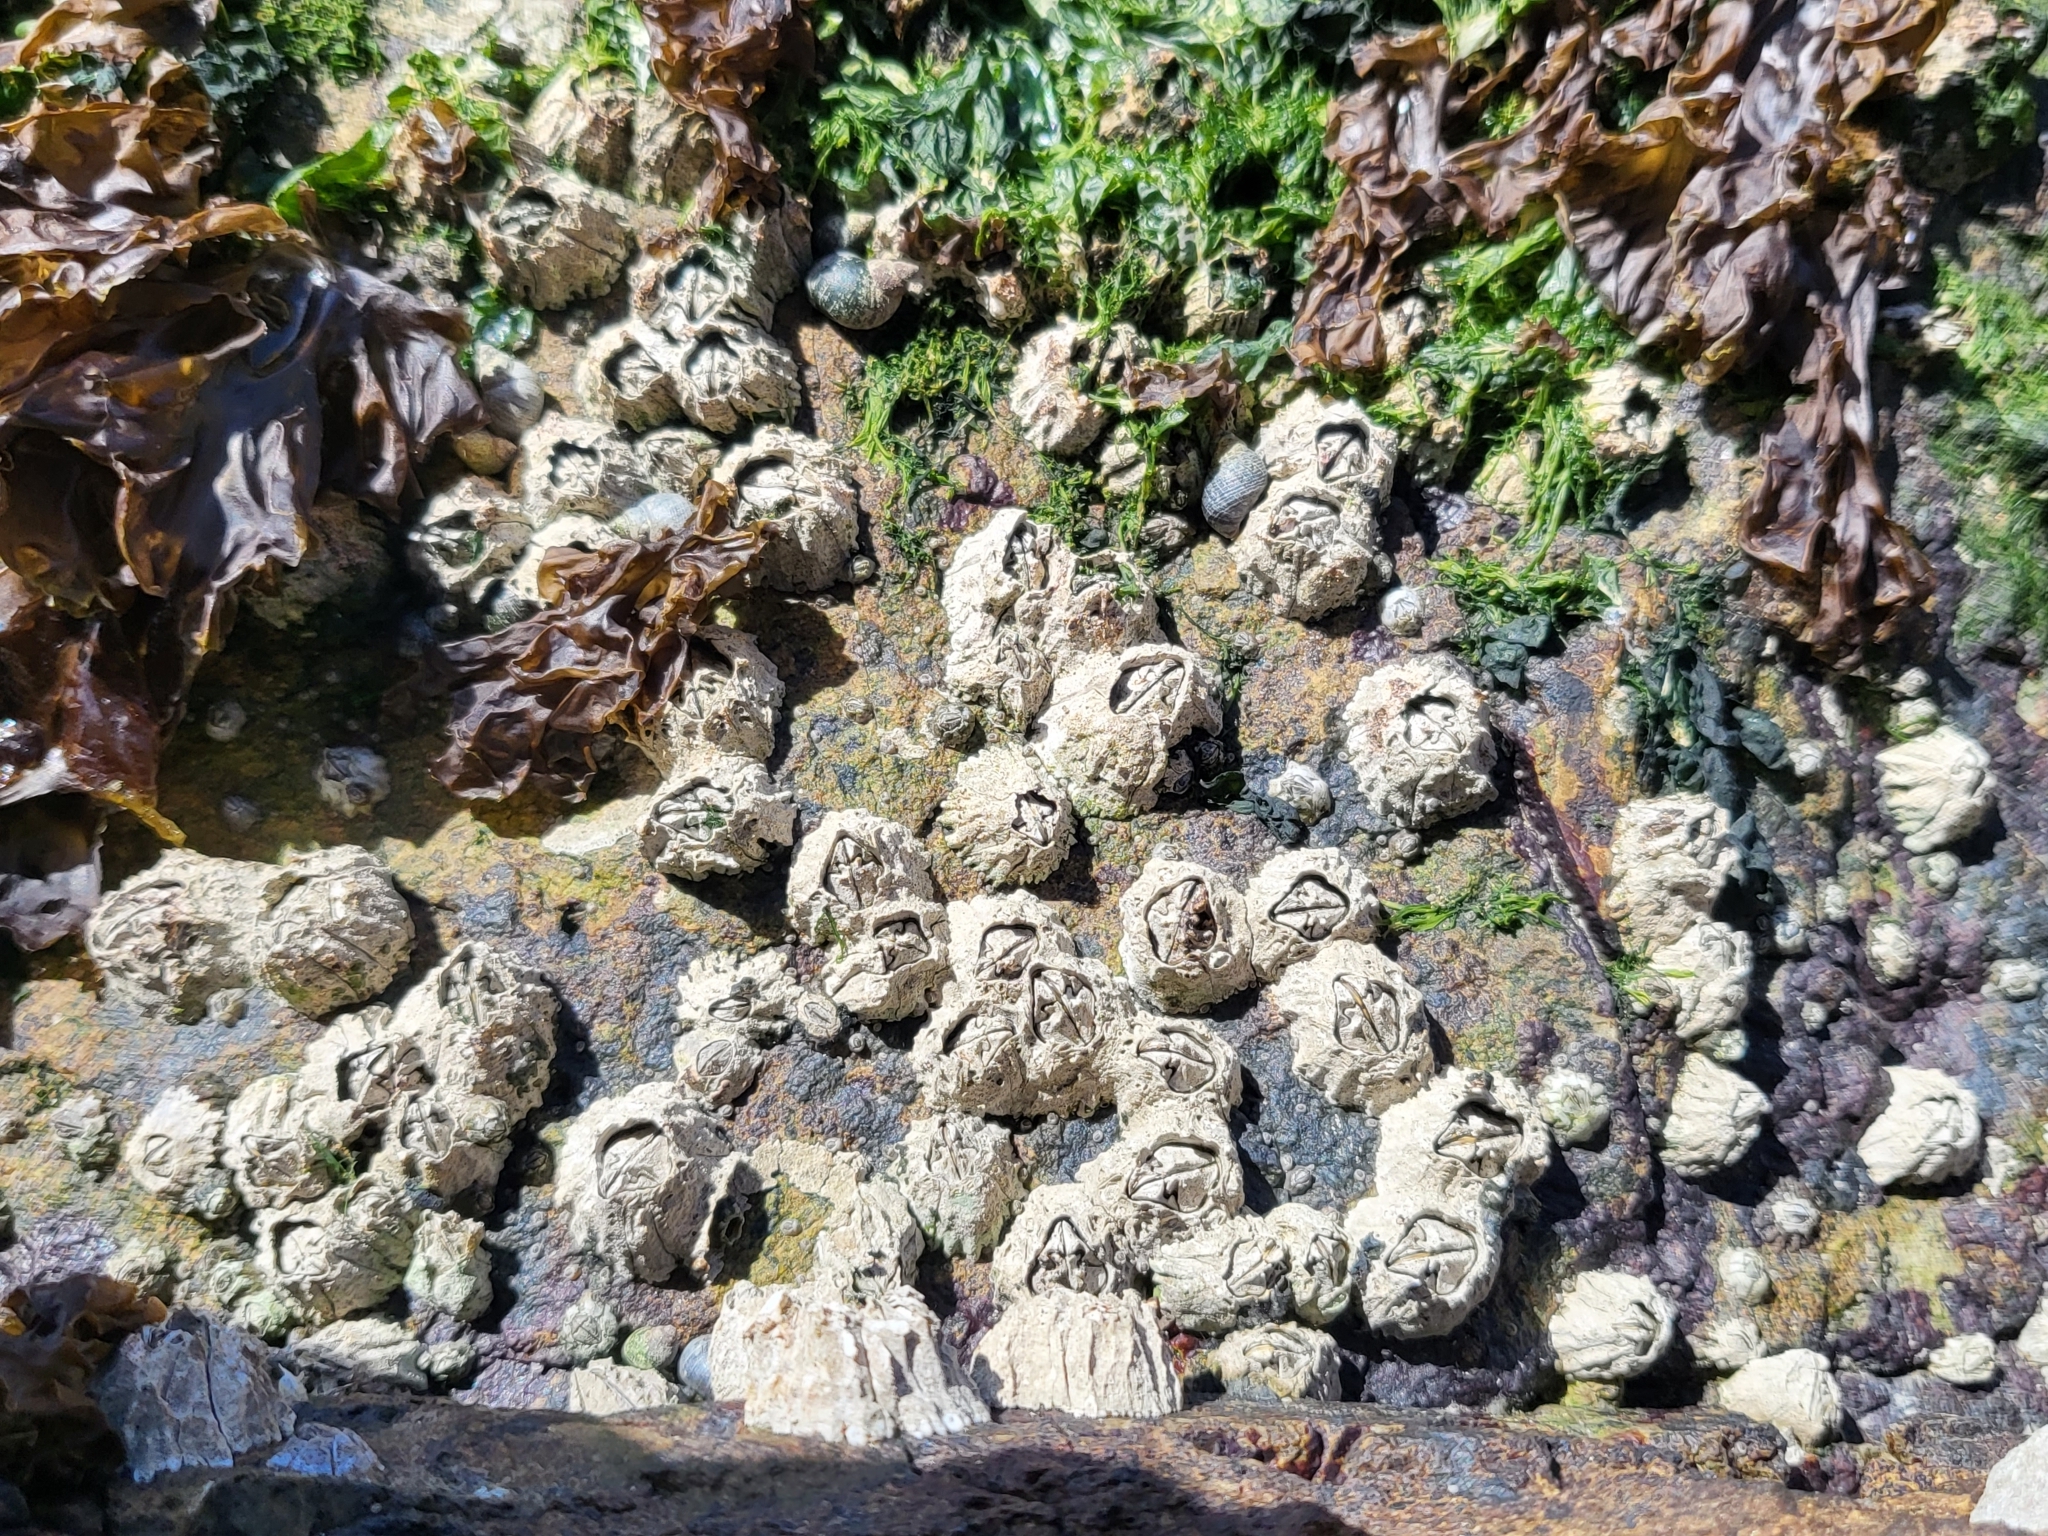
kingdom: Animalia
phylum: Arthropoda
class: Maxillopoda
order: Sessilia
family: Balanidae
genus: Balanus
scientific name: Balanus glandula
